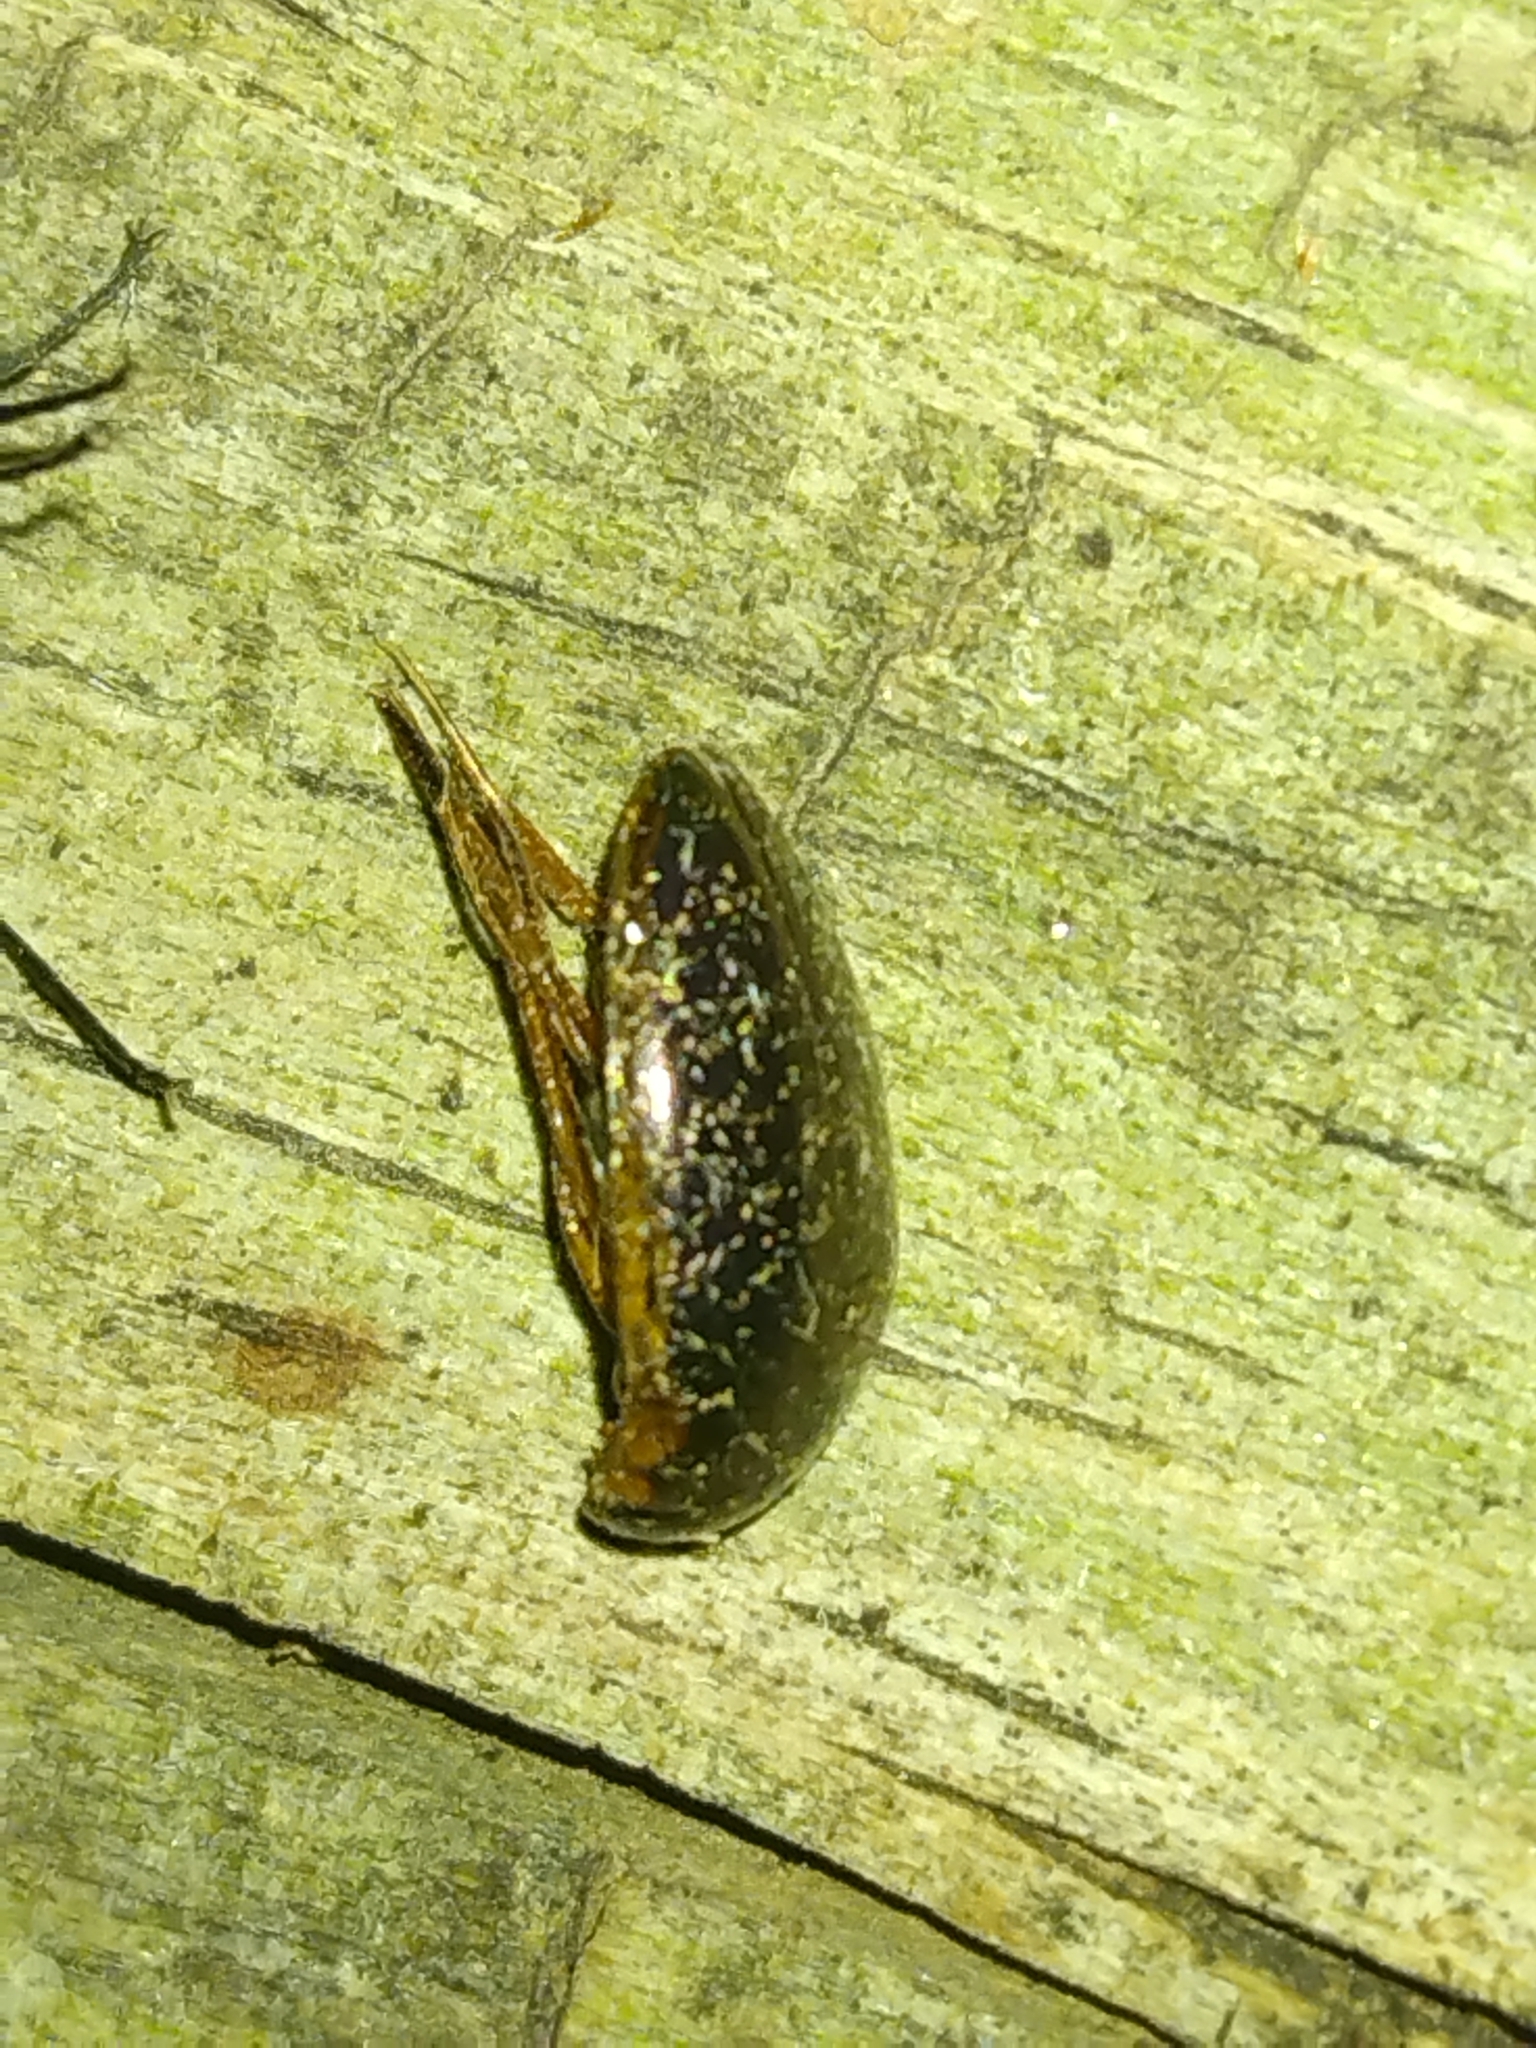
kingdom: Animalia
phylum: Arthropoda
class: Insecta
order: Coleoptera
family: Hydrophilidae
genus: Tropisternus
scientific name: Tropisternus lateralis
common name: Lateral-banded water scavenger beetle
